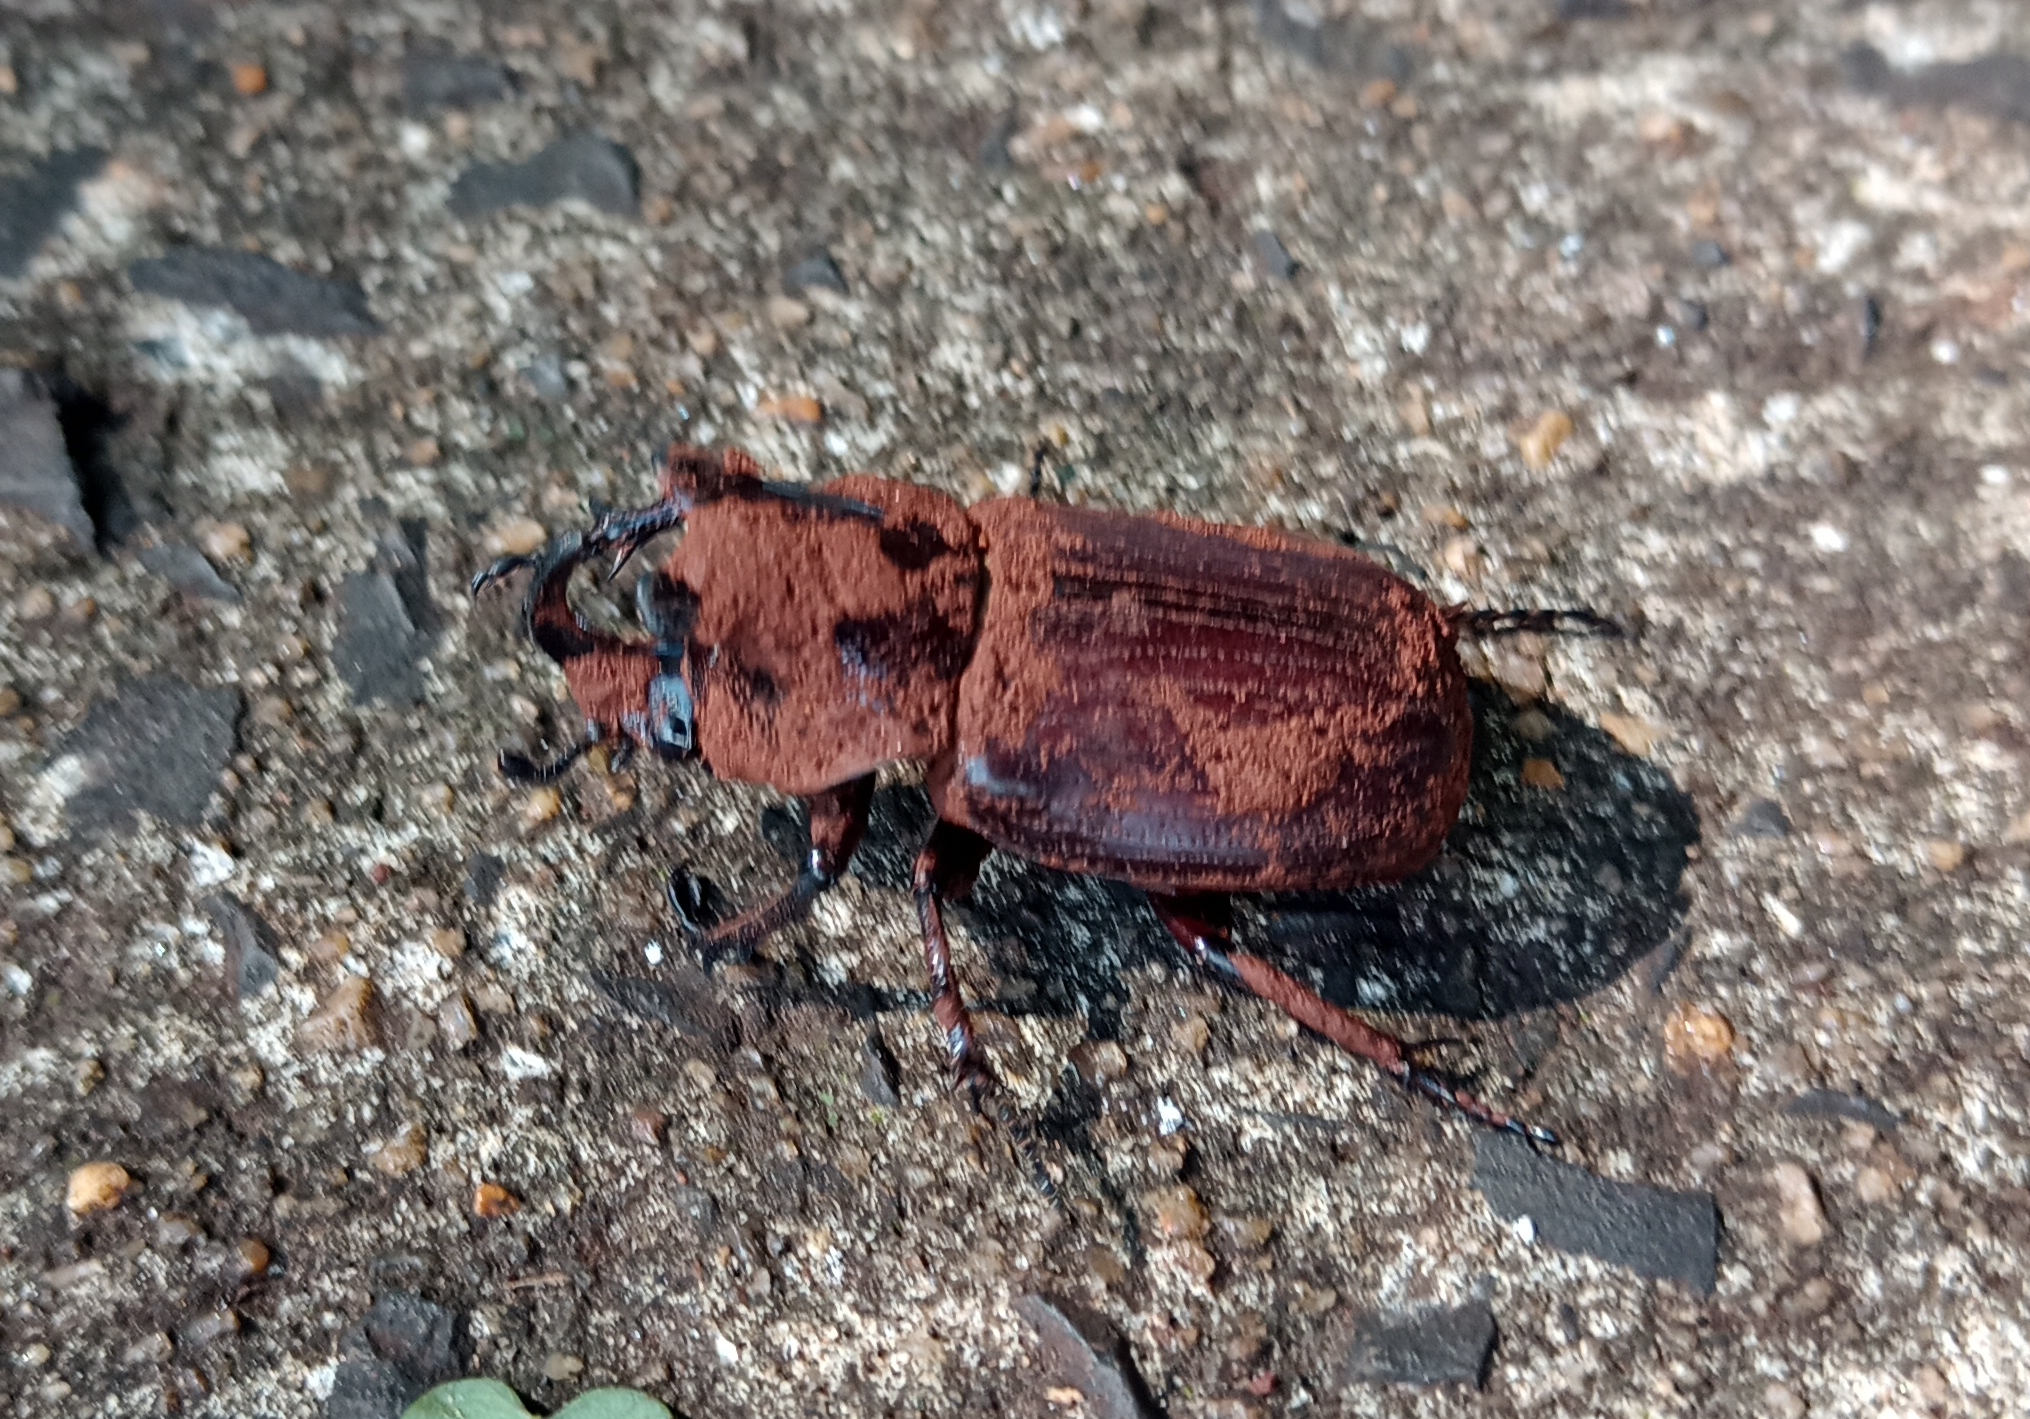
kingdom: Animalia
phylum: Arthropoda
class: Insecta
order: Coleoptera
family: Scarabaeidae
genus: Coelosis
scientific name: Coelosis biloba
